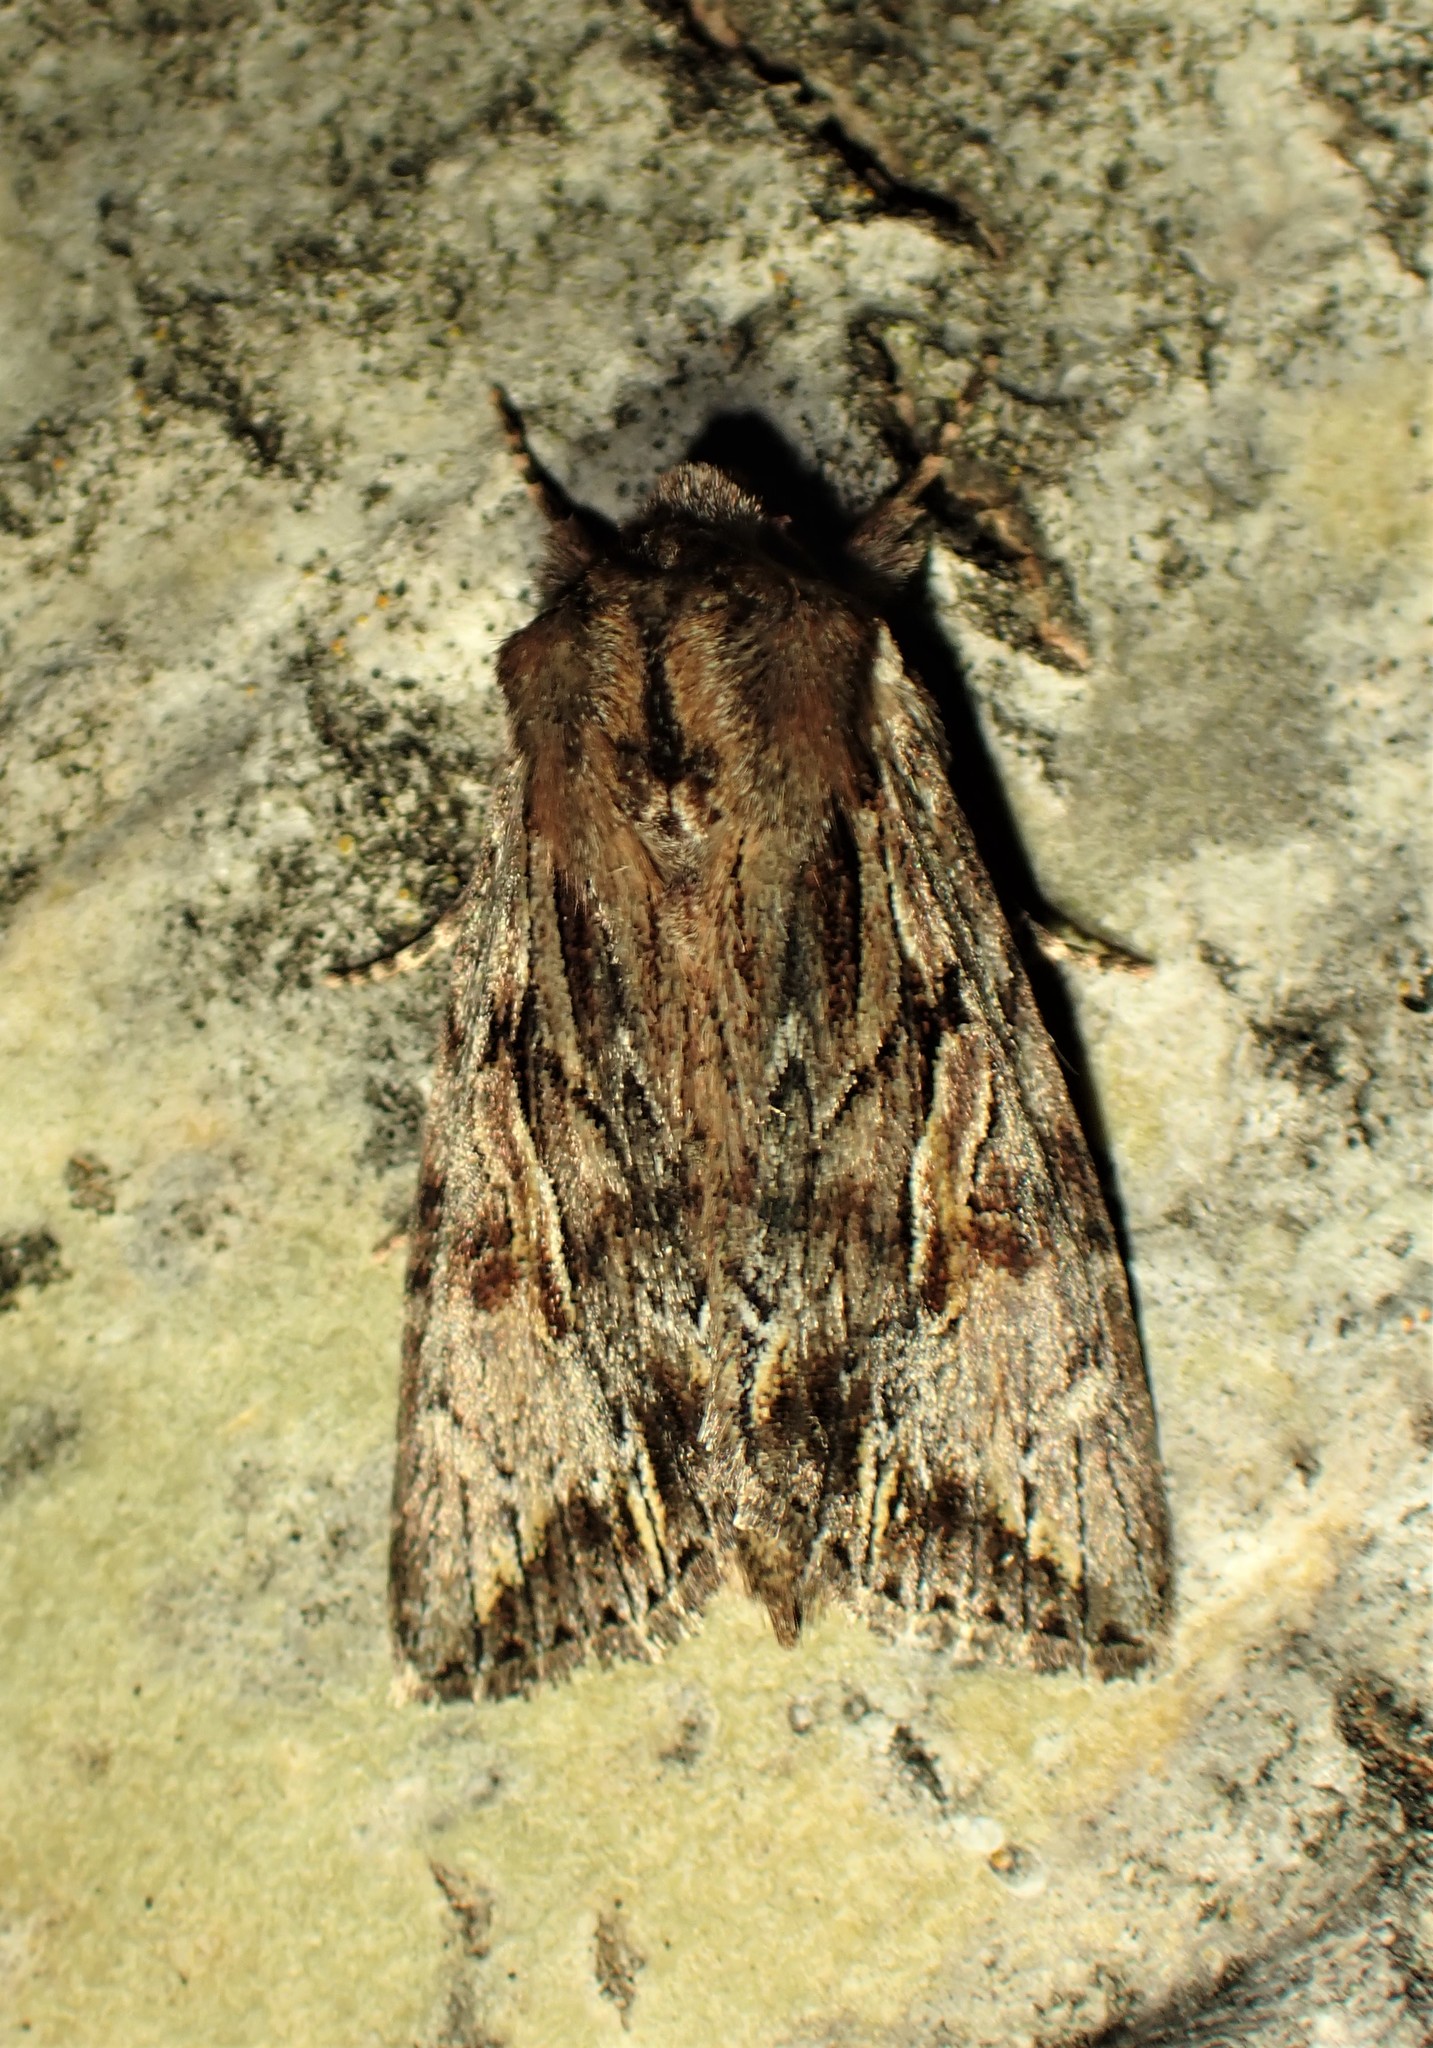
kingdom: Animalia
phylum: Arthropoda
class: Insecta
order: Lepidoptera
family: Noctuidae
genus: Achatia
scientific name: Achatia evicta
